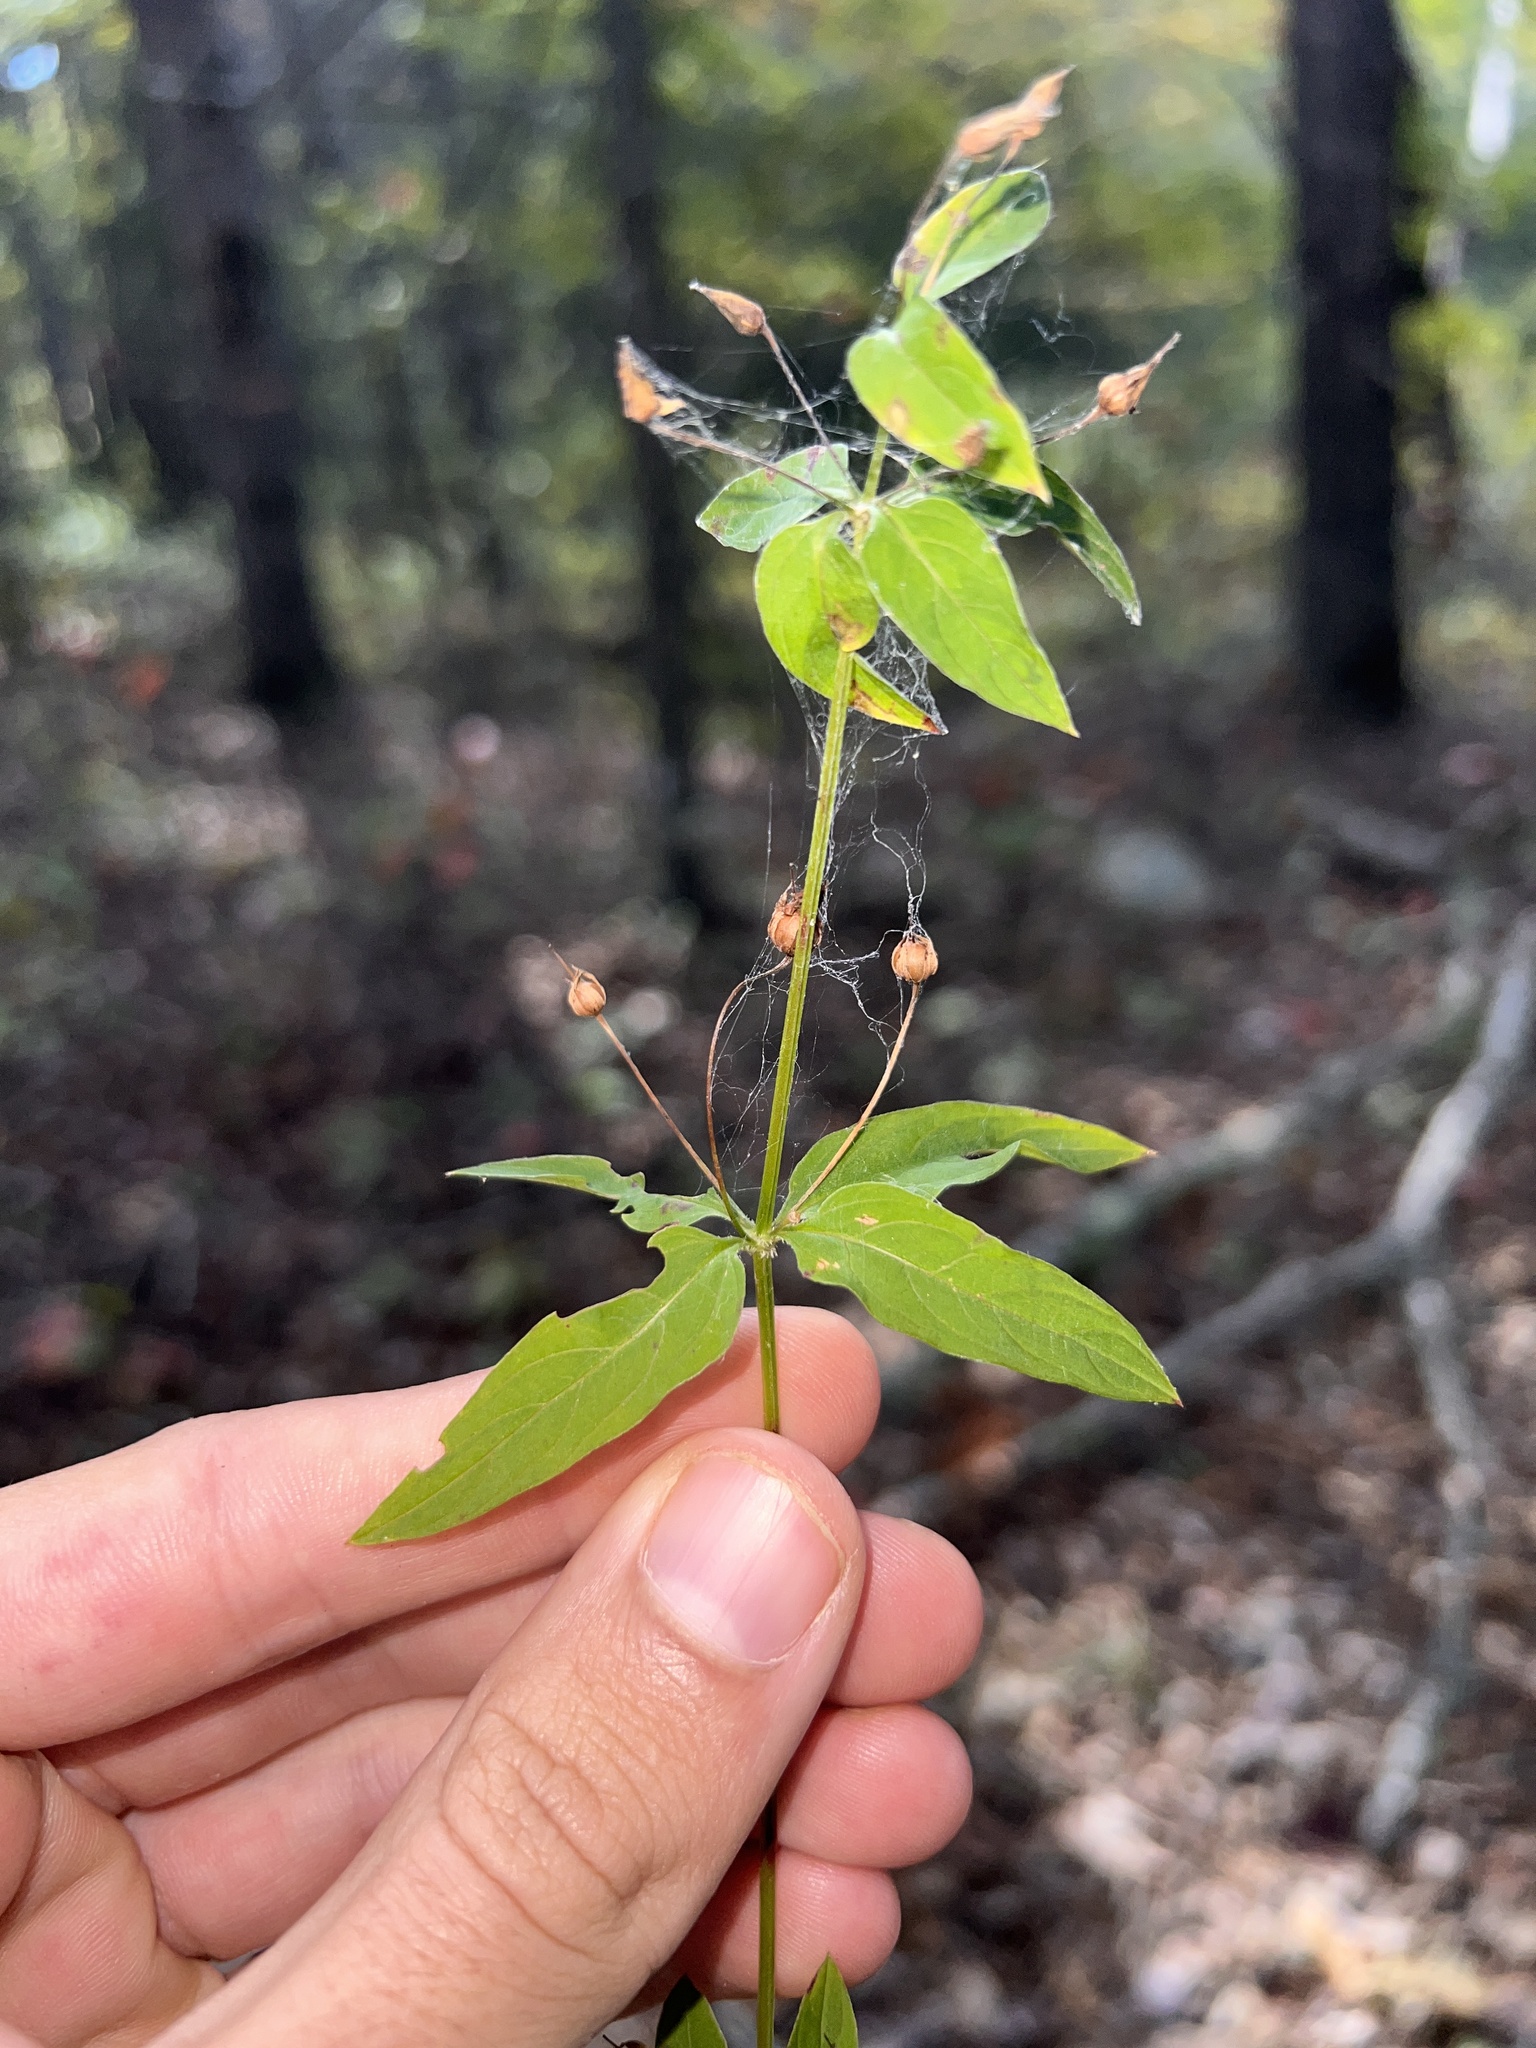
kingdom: Plantae
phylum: Tracheophyta
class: Magnoliopsida
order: Ericales
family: Primulaceae
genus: Lysimachia
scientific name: Lysimachia hybrida
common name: Lowland loosestrife
